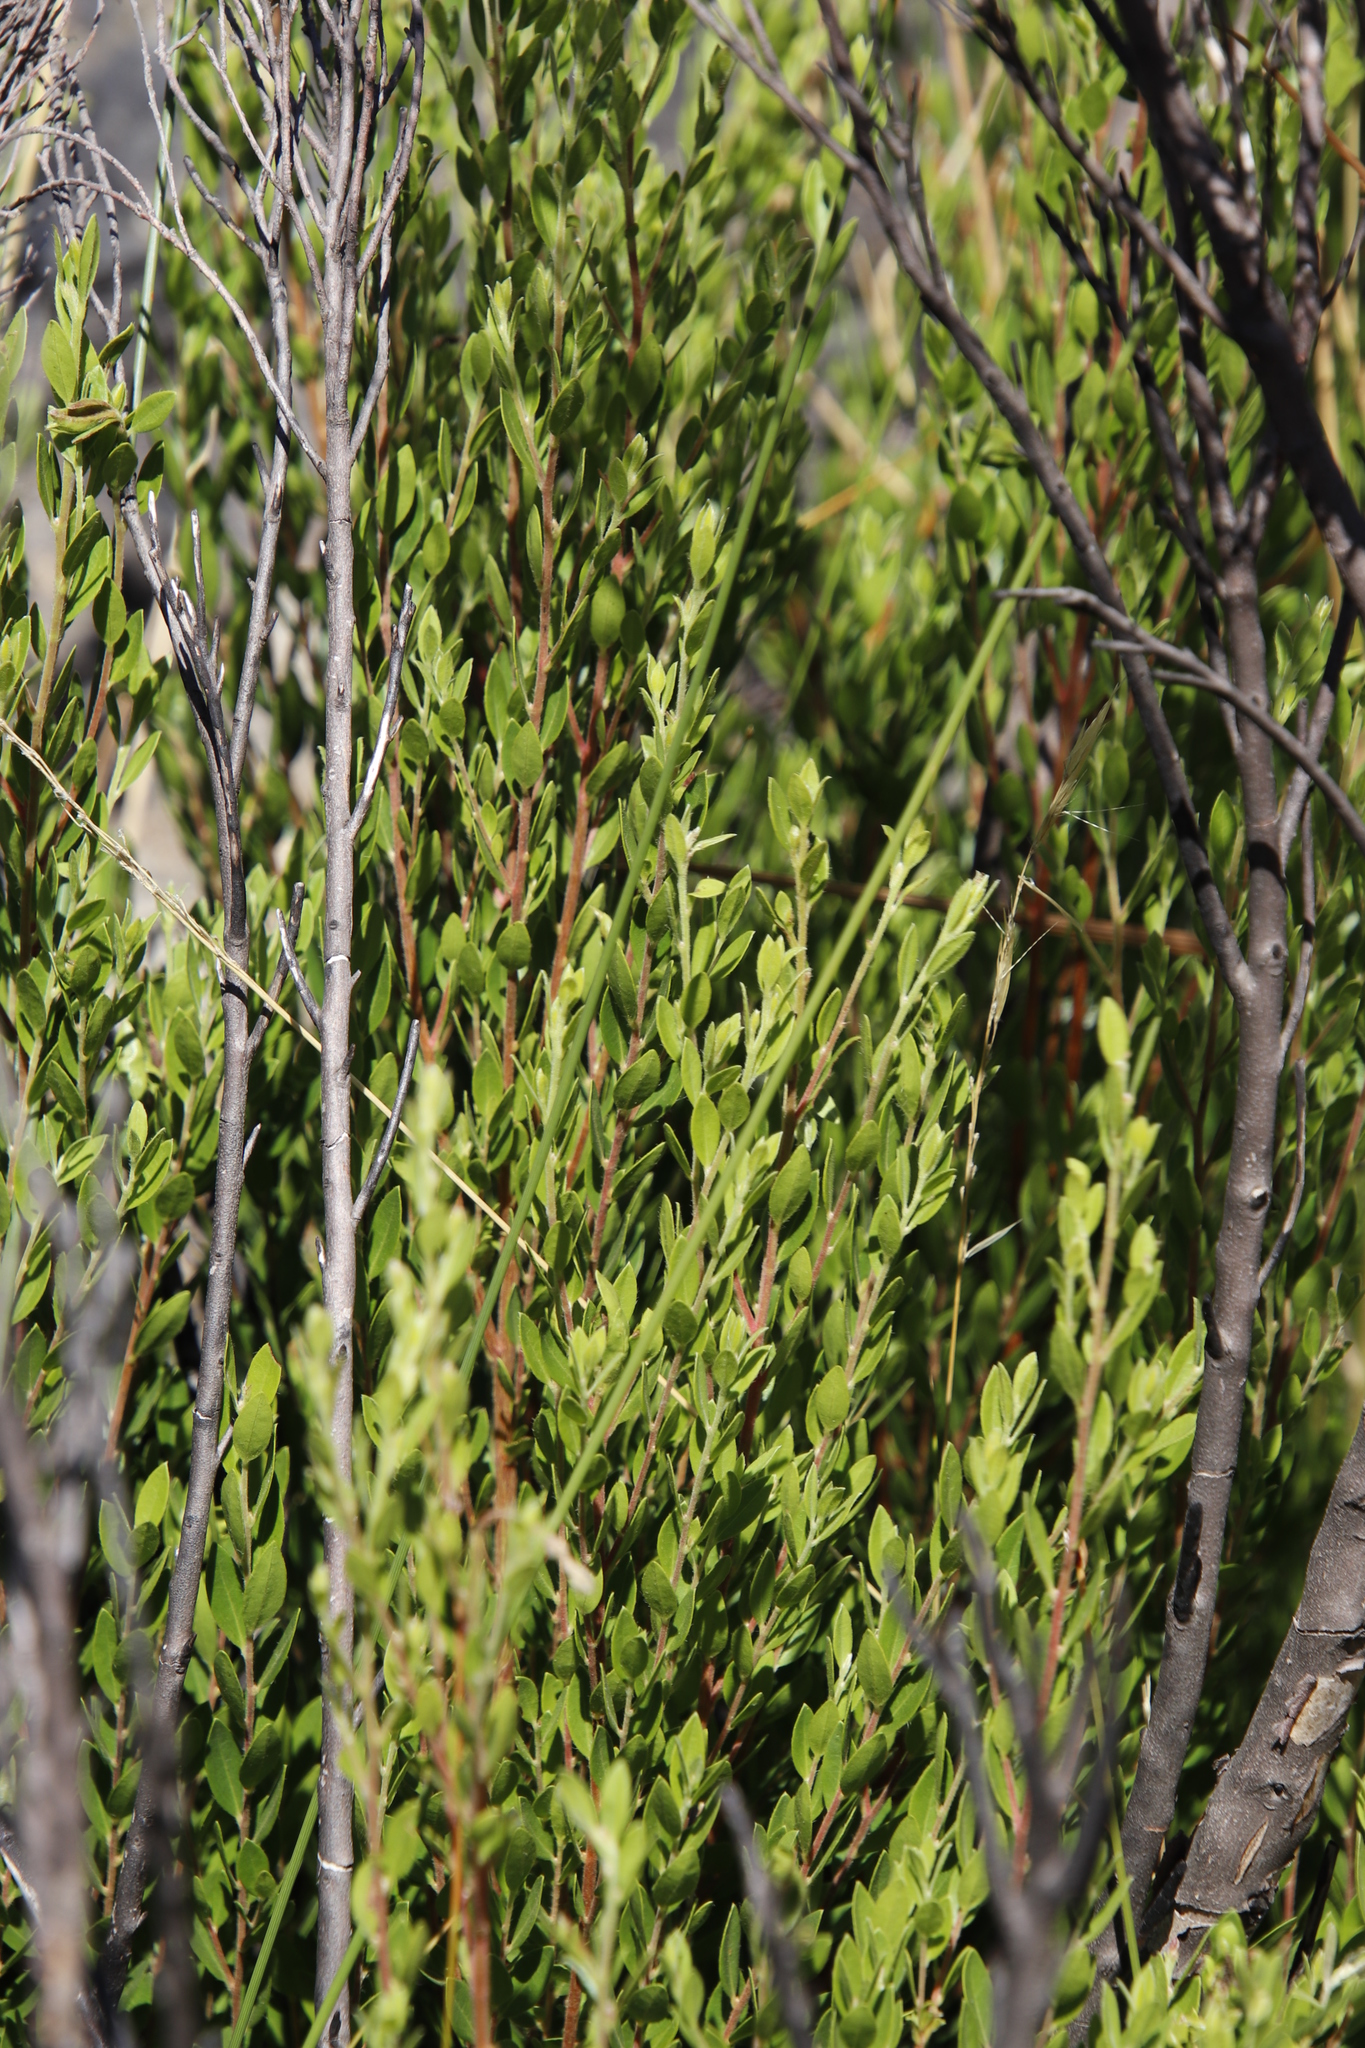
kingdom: Plantae
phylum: Tracheophyta
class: Magnoliopsida
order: Ericales
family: Ebenaceae
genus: Diospyros
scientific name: Diospyros glabra
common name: Fynbos star apple
